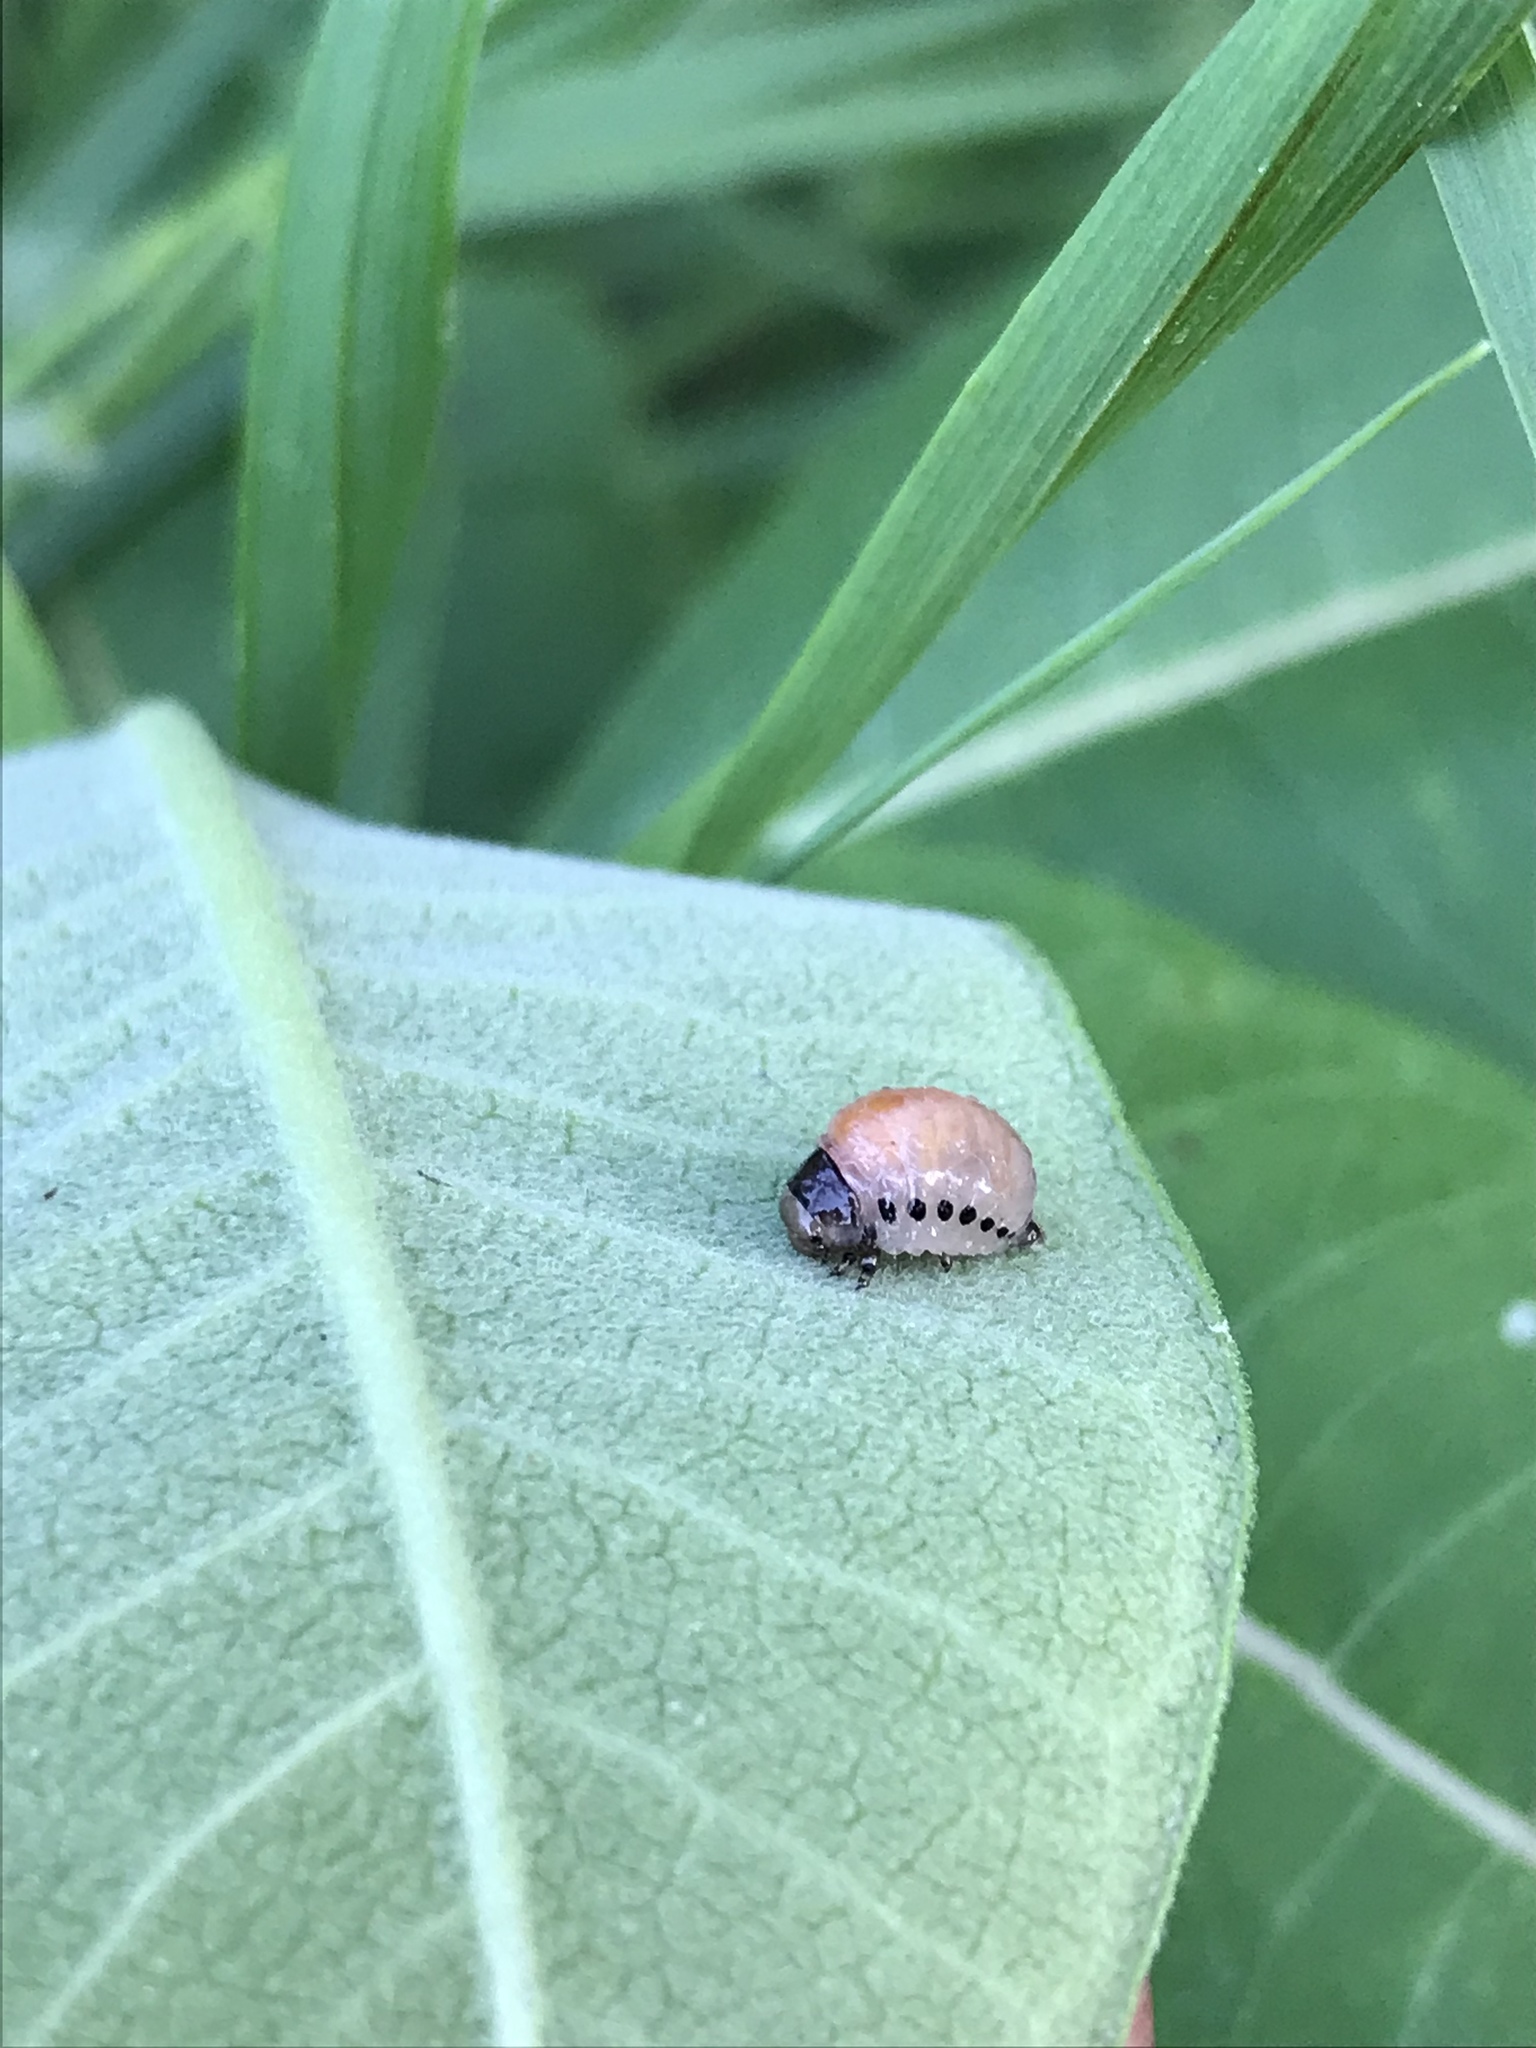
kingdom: Animalia
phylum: Arthropoda
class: Insecta
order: Coleoptera
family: Chrysomelidae
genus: Labidomera
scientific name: Labidomera clivicollis
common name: Swamp milkweed leaf beetle
